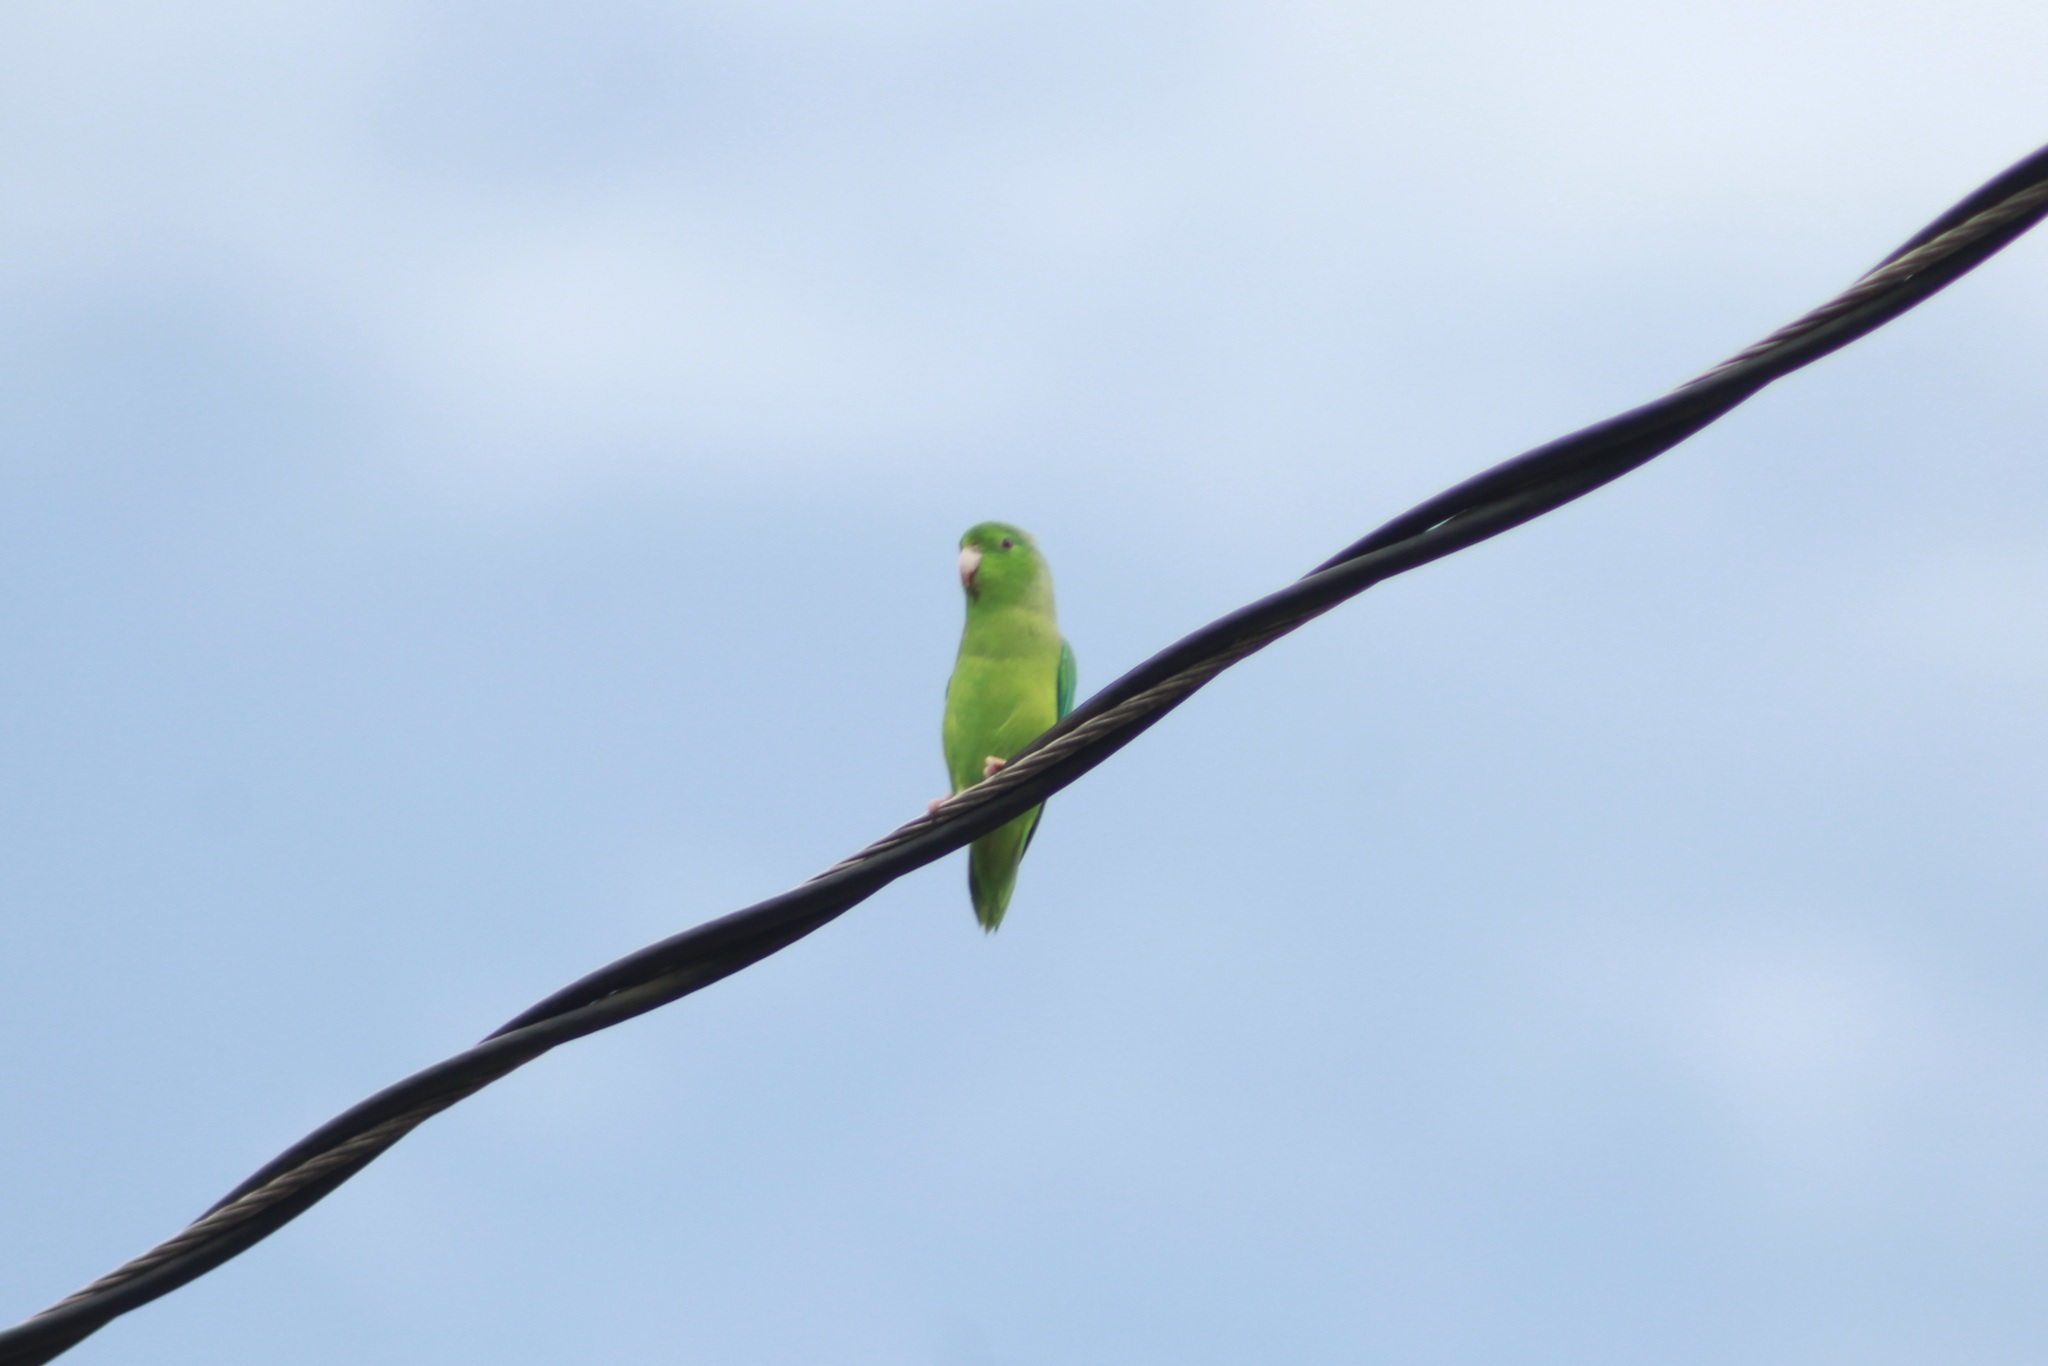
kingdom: Animalia
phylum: Chordata
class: Aves
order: Psittaciformes
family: Psittacidae
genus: Forpus
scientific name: Forpus passerinus
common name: Green-rumped parrotlet
